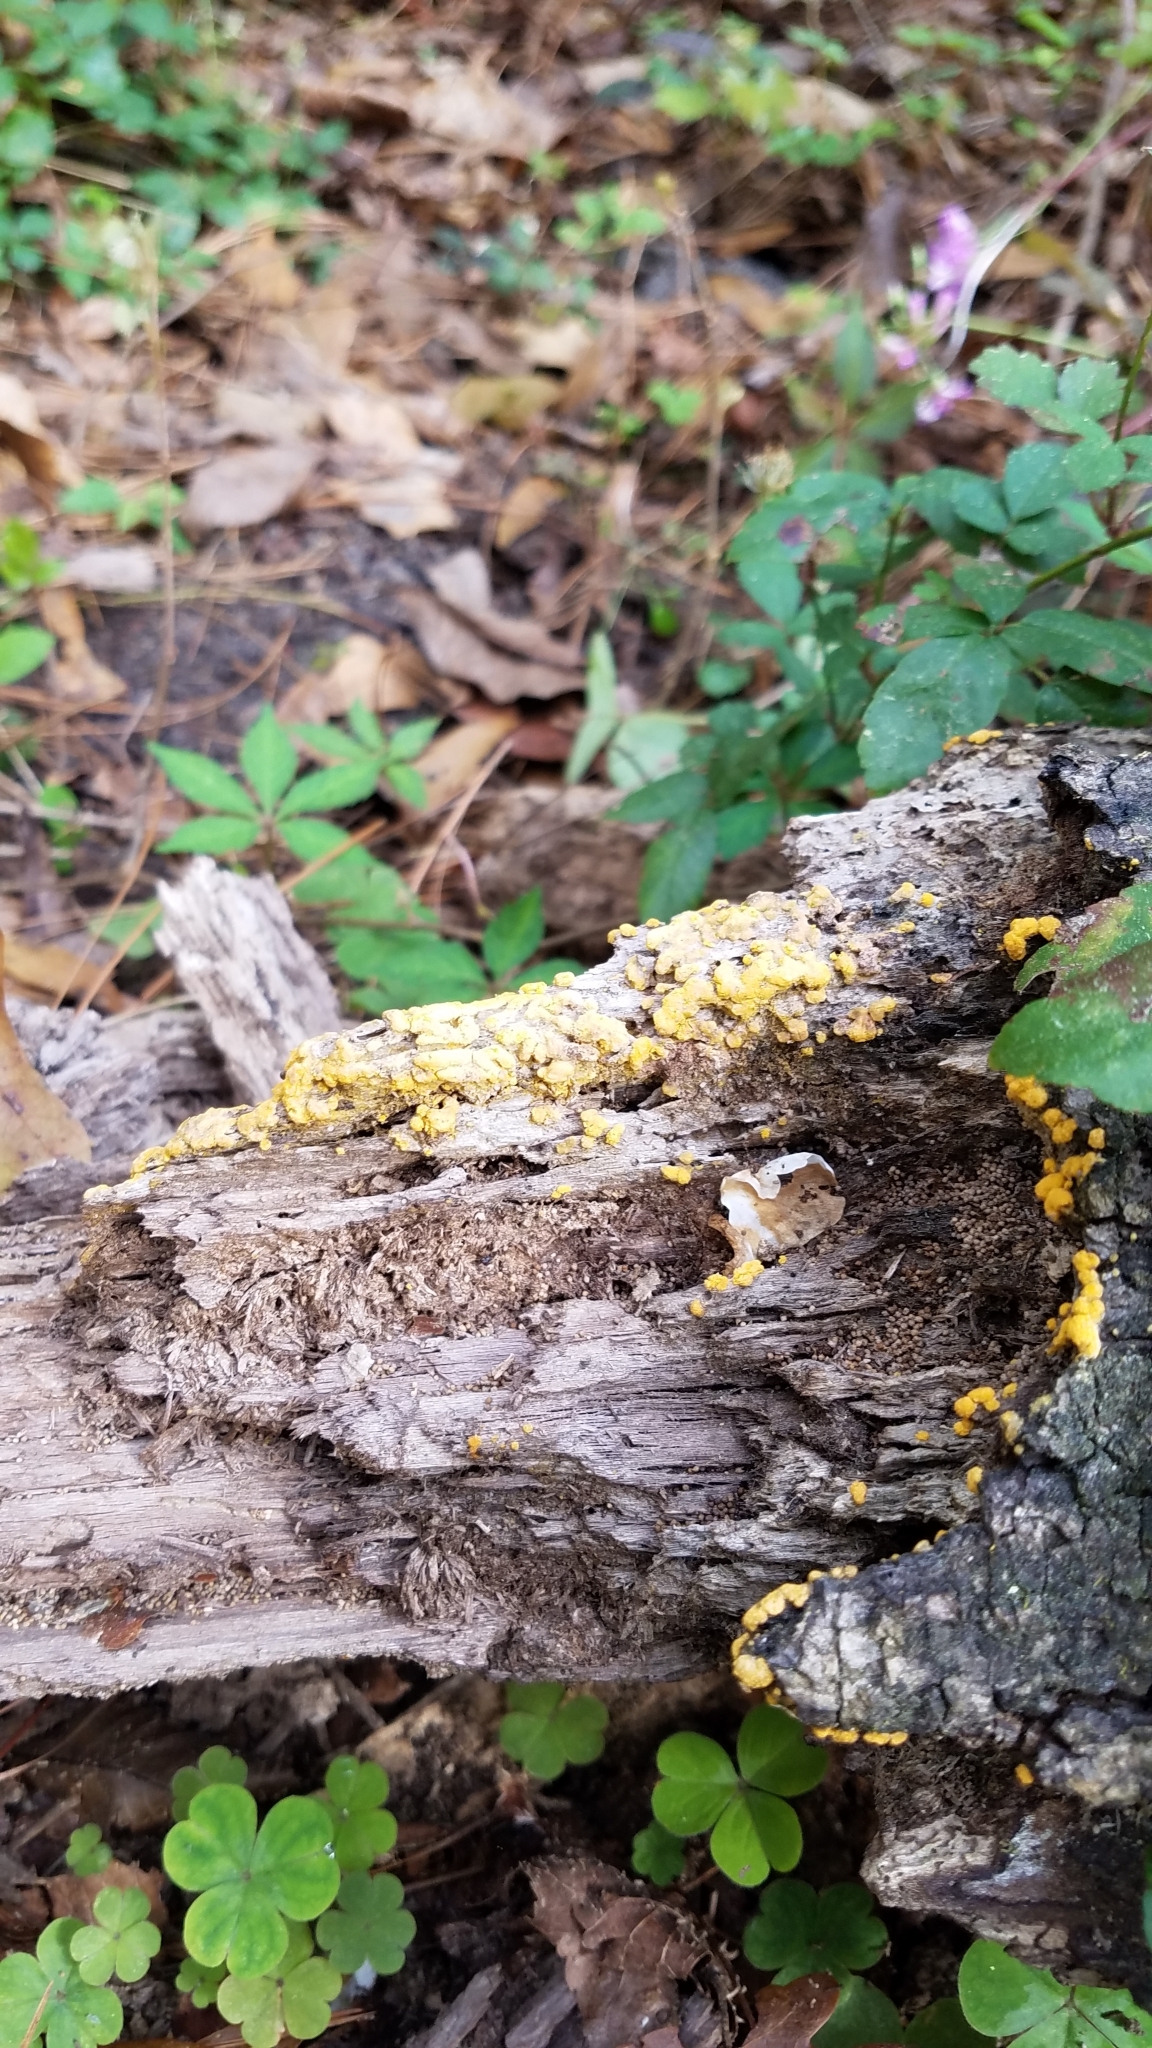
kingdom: Protozoa
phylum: Mycetozoa
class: Myxomycetes
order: Physarales
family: Physaraceae
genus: Fuligo
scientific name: Fuligo septica
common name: Dog vomit slime mold
